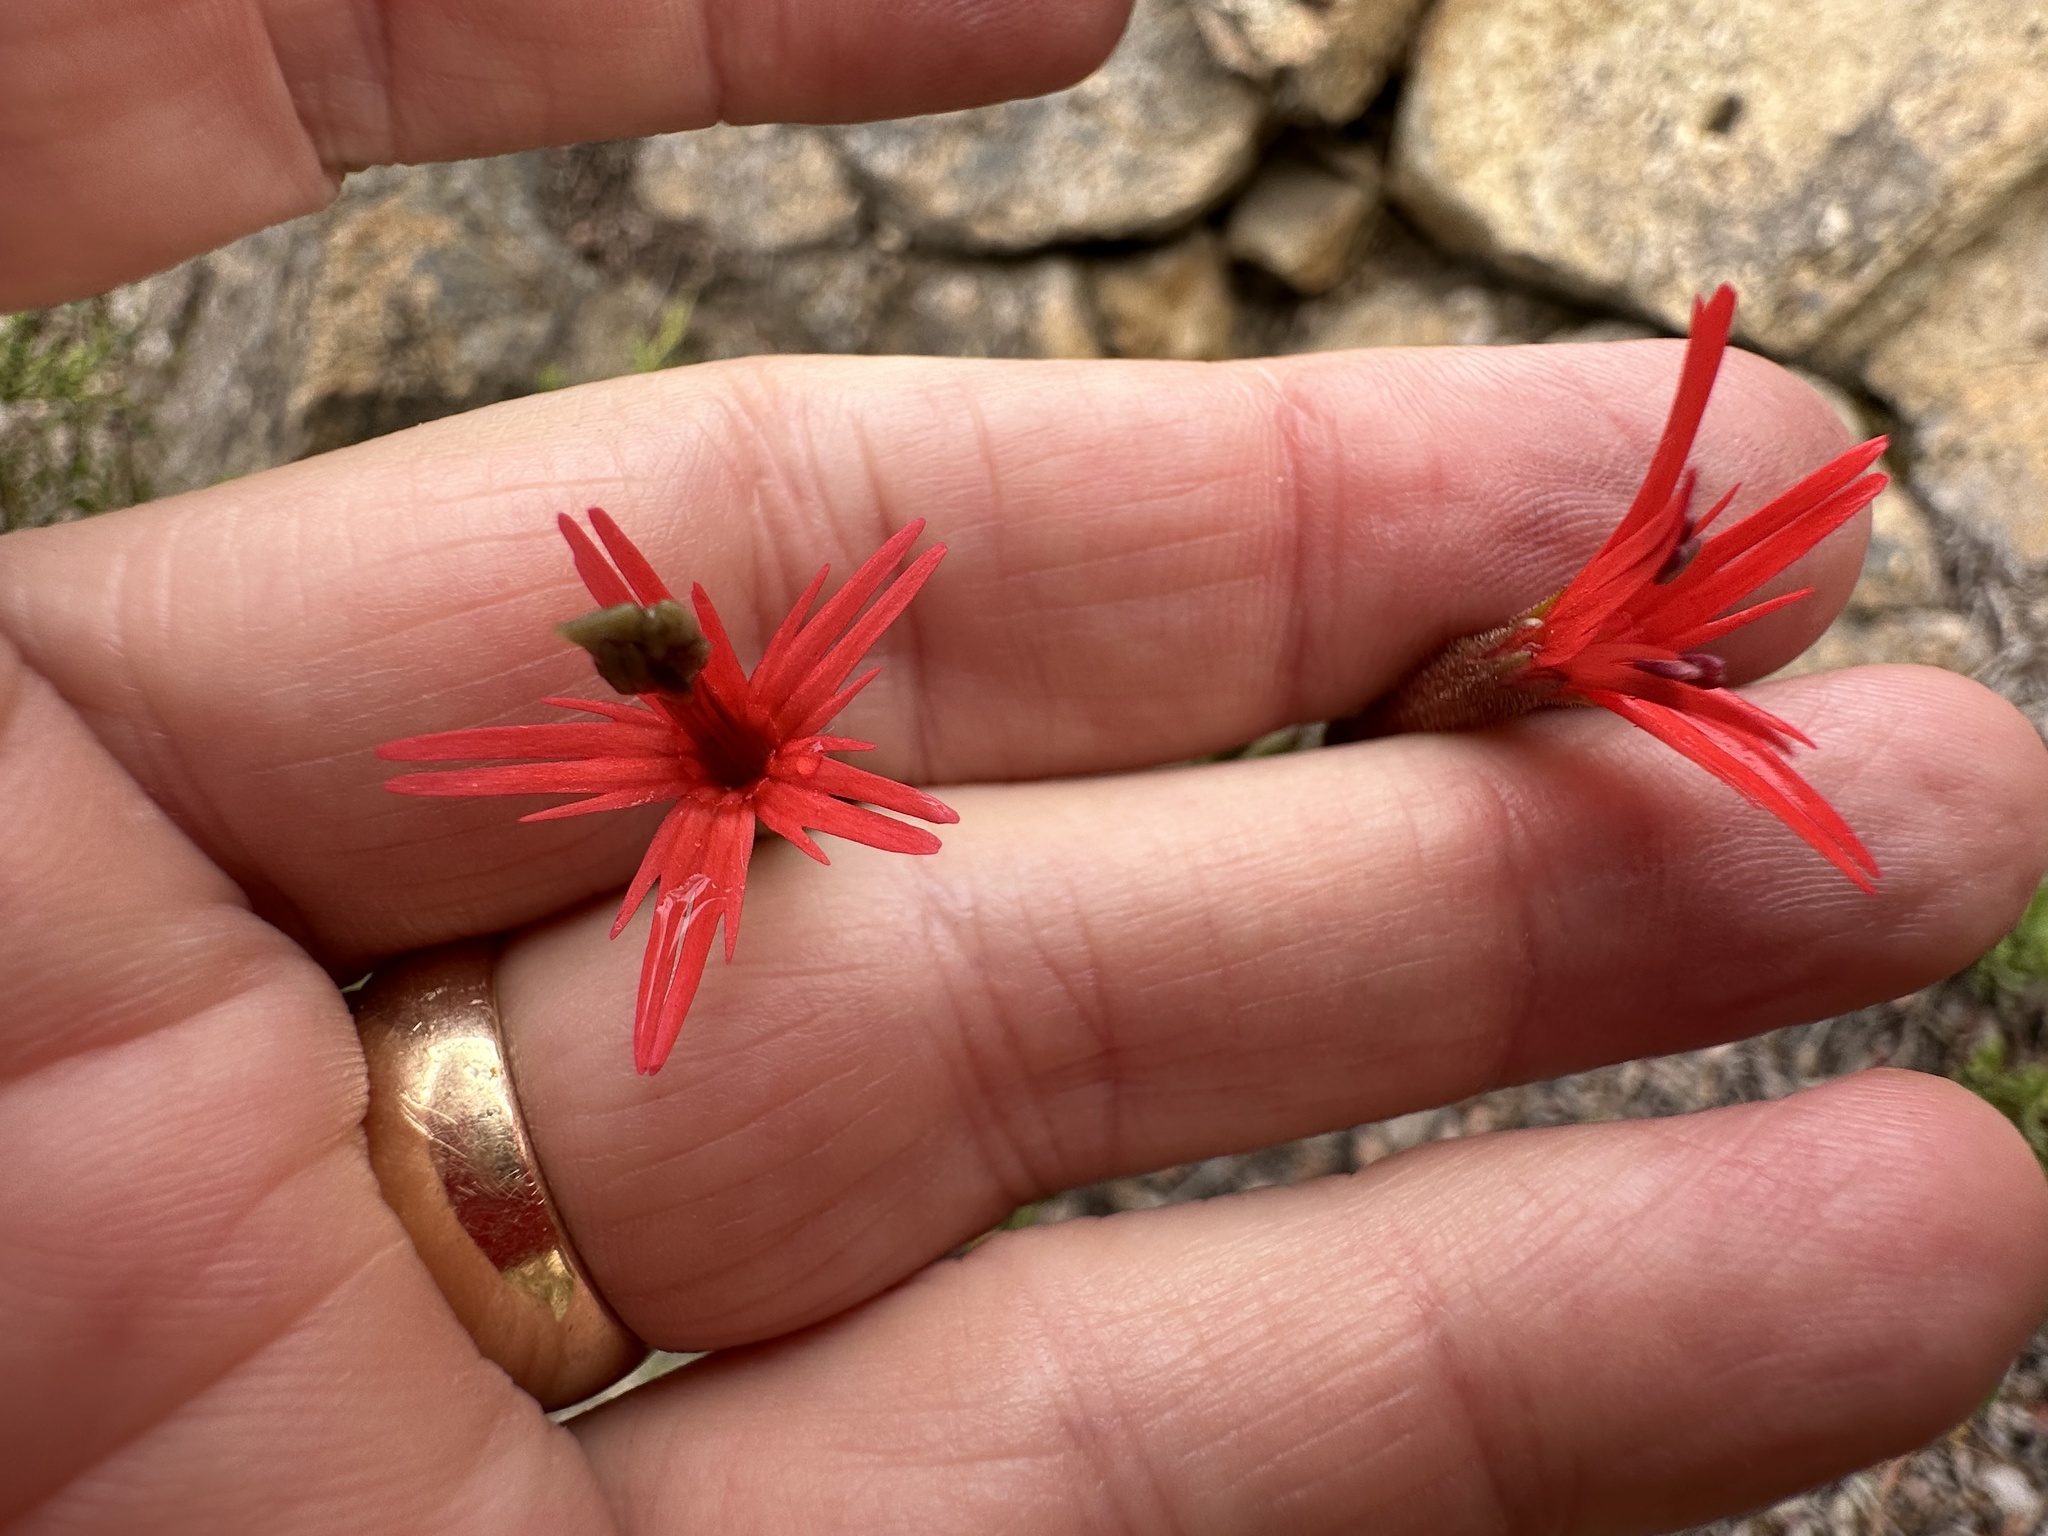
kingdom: Plantae
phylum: Tracheophyta
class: Magnoliopsida
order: Caryophyllales
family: Caryophyllaceae
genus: Silene
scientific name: Silene laciniata
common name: Indian-pink
